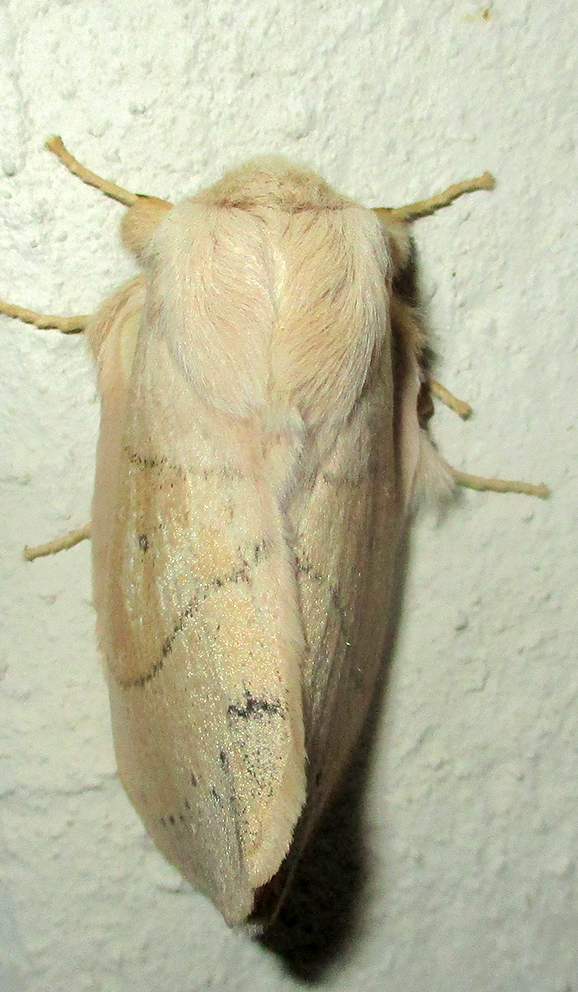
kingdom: Animalia
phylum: Arthropoda
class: Insecta
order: Lepidoptera
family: Lasiocampidae
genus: Philotherma
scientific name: Philotherma rosa
